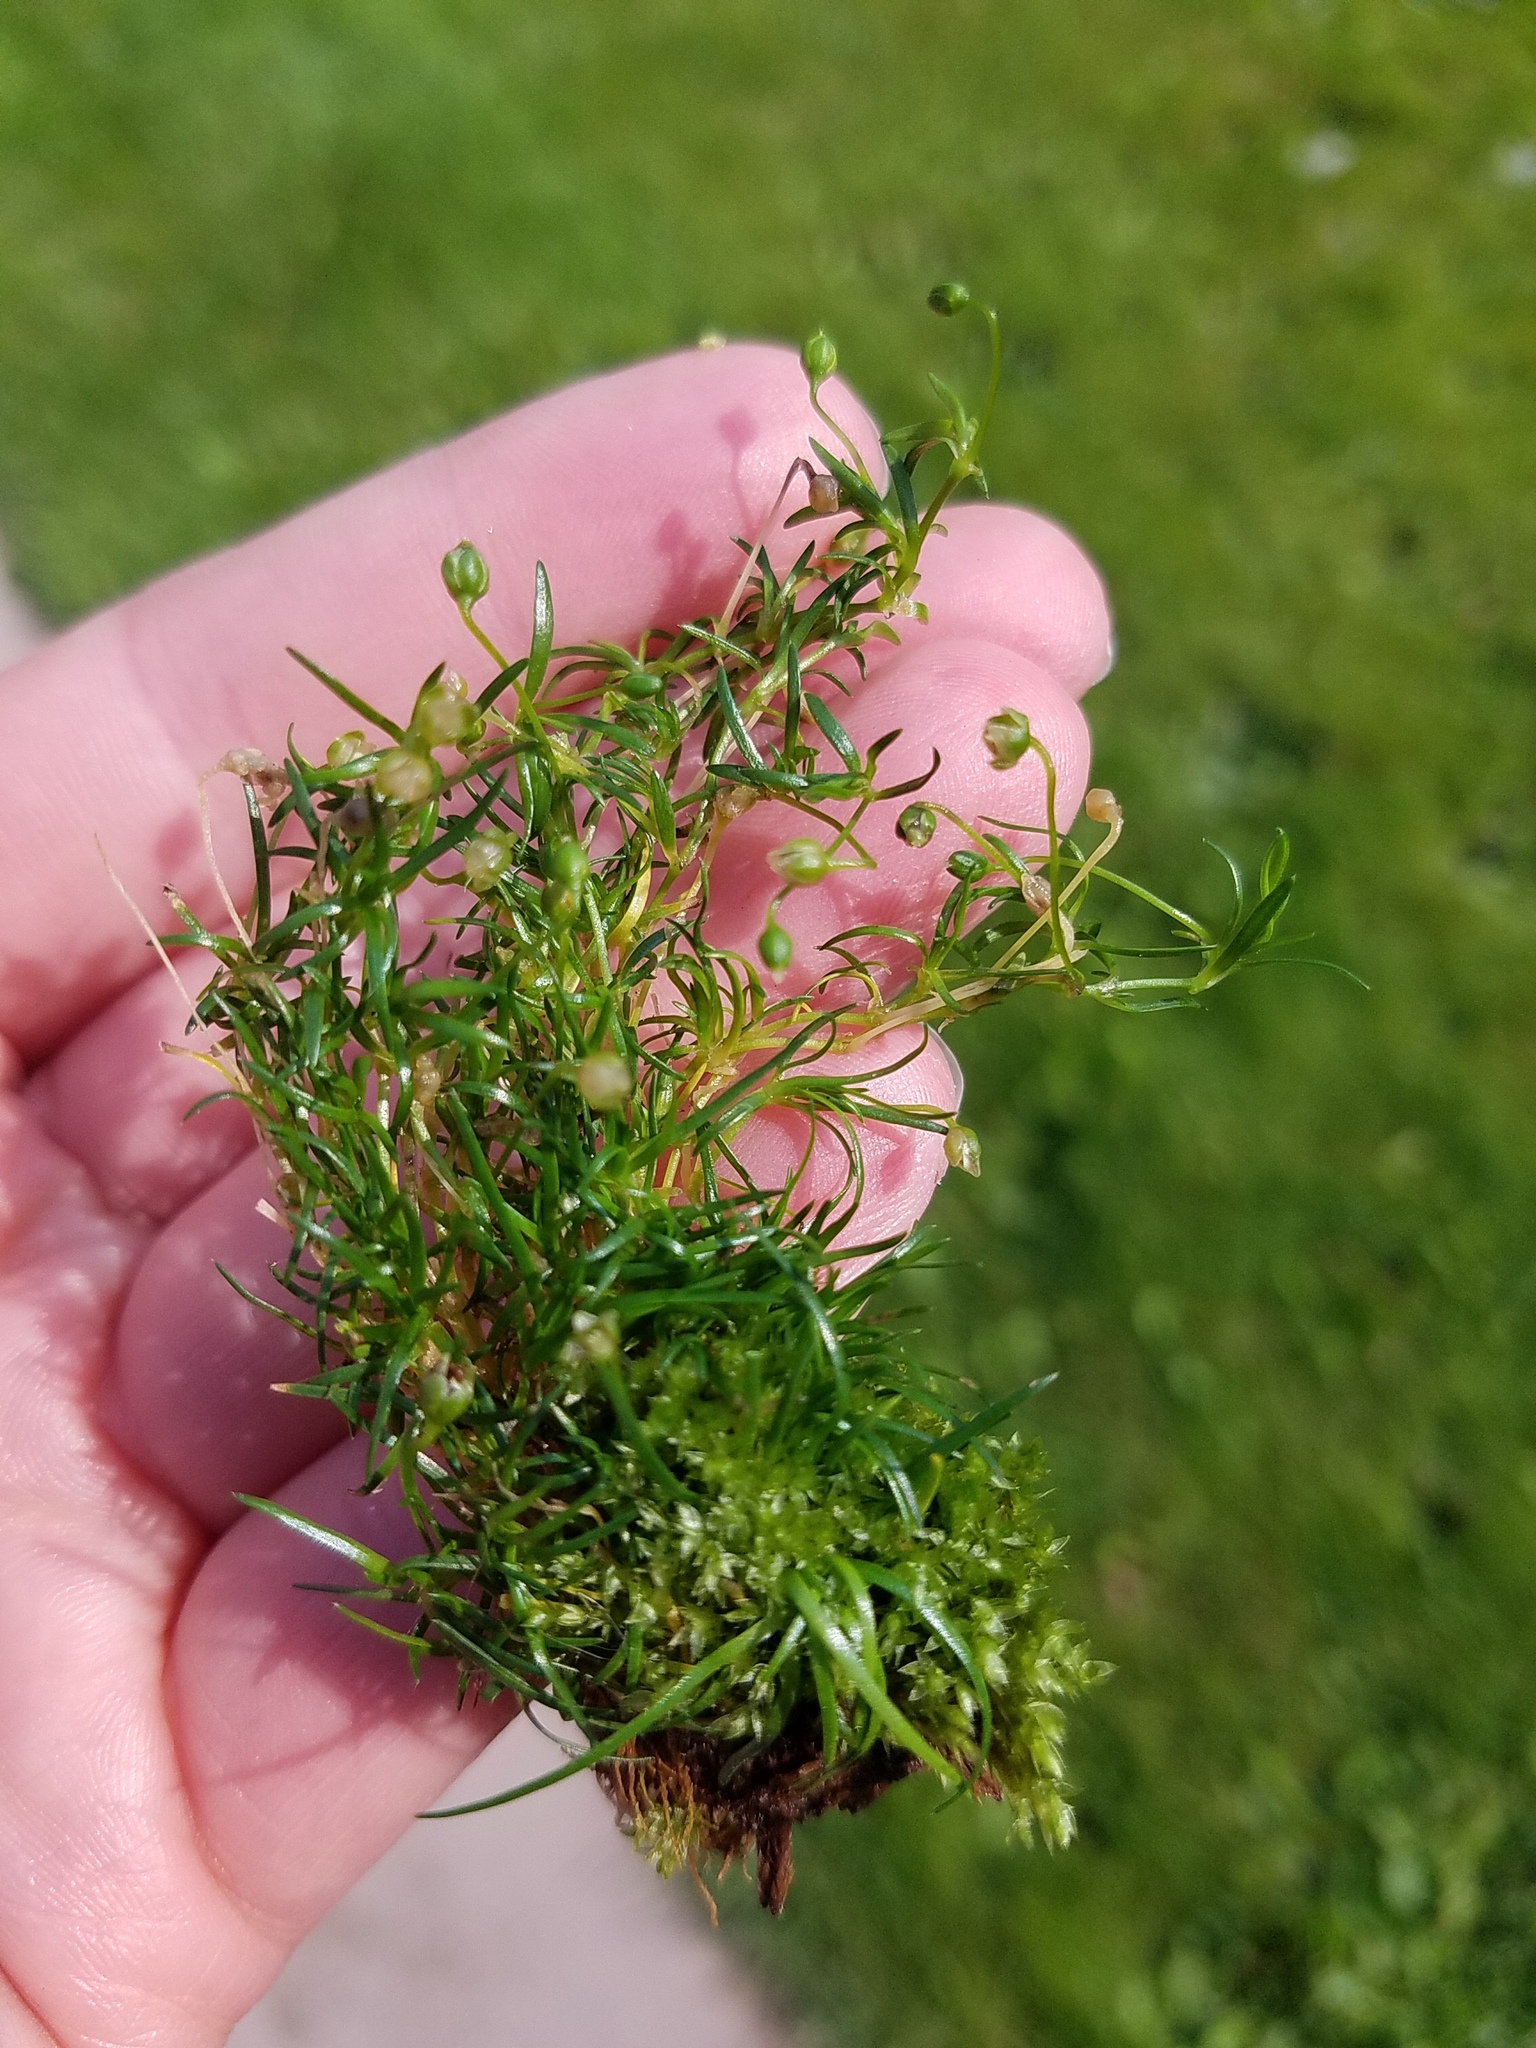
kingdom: Plantae
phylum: Tracheophyta
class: Magnoliopsida
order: Caryophyllales
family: Caryophyllaceae
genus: Sagina
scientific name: Sagina procumbens
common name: Procumbent pearlwort
